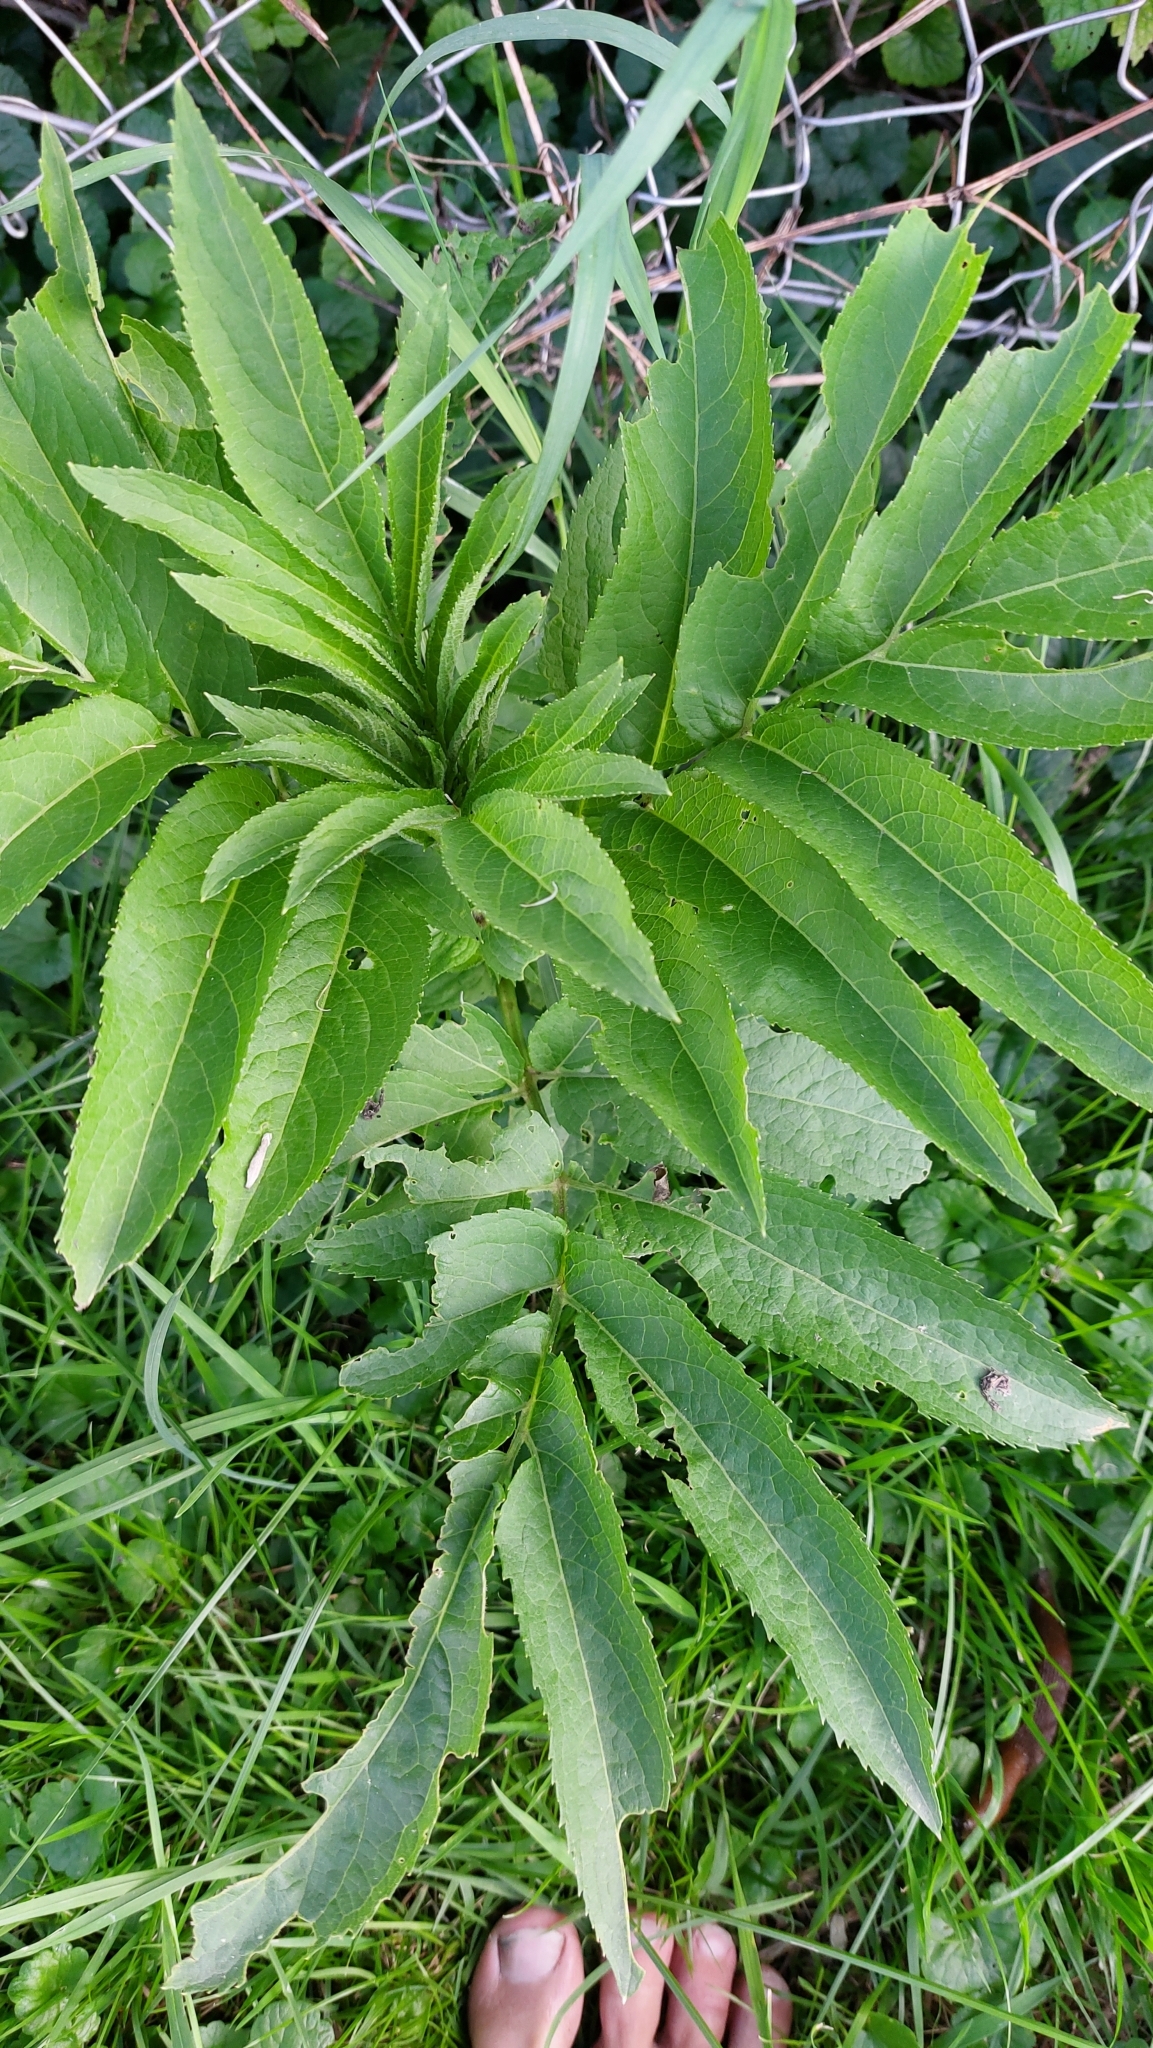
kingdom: Plantae
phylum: Tracheophyta
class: Magnoliopsida
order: Dipsacales
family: Viburnaceae
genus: Sambucus
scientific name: Sambucus ebulus
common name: Dwarf elder
